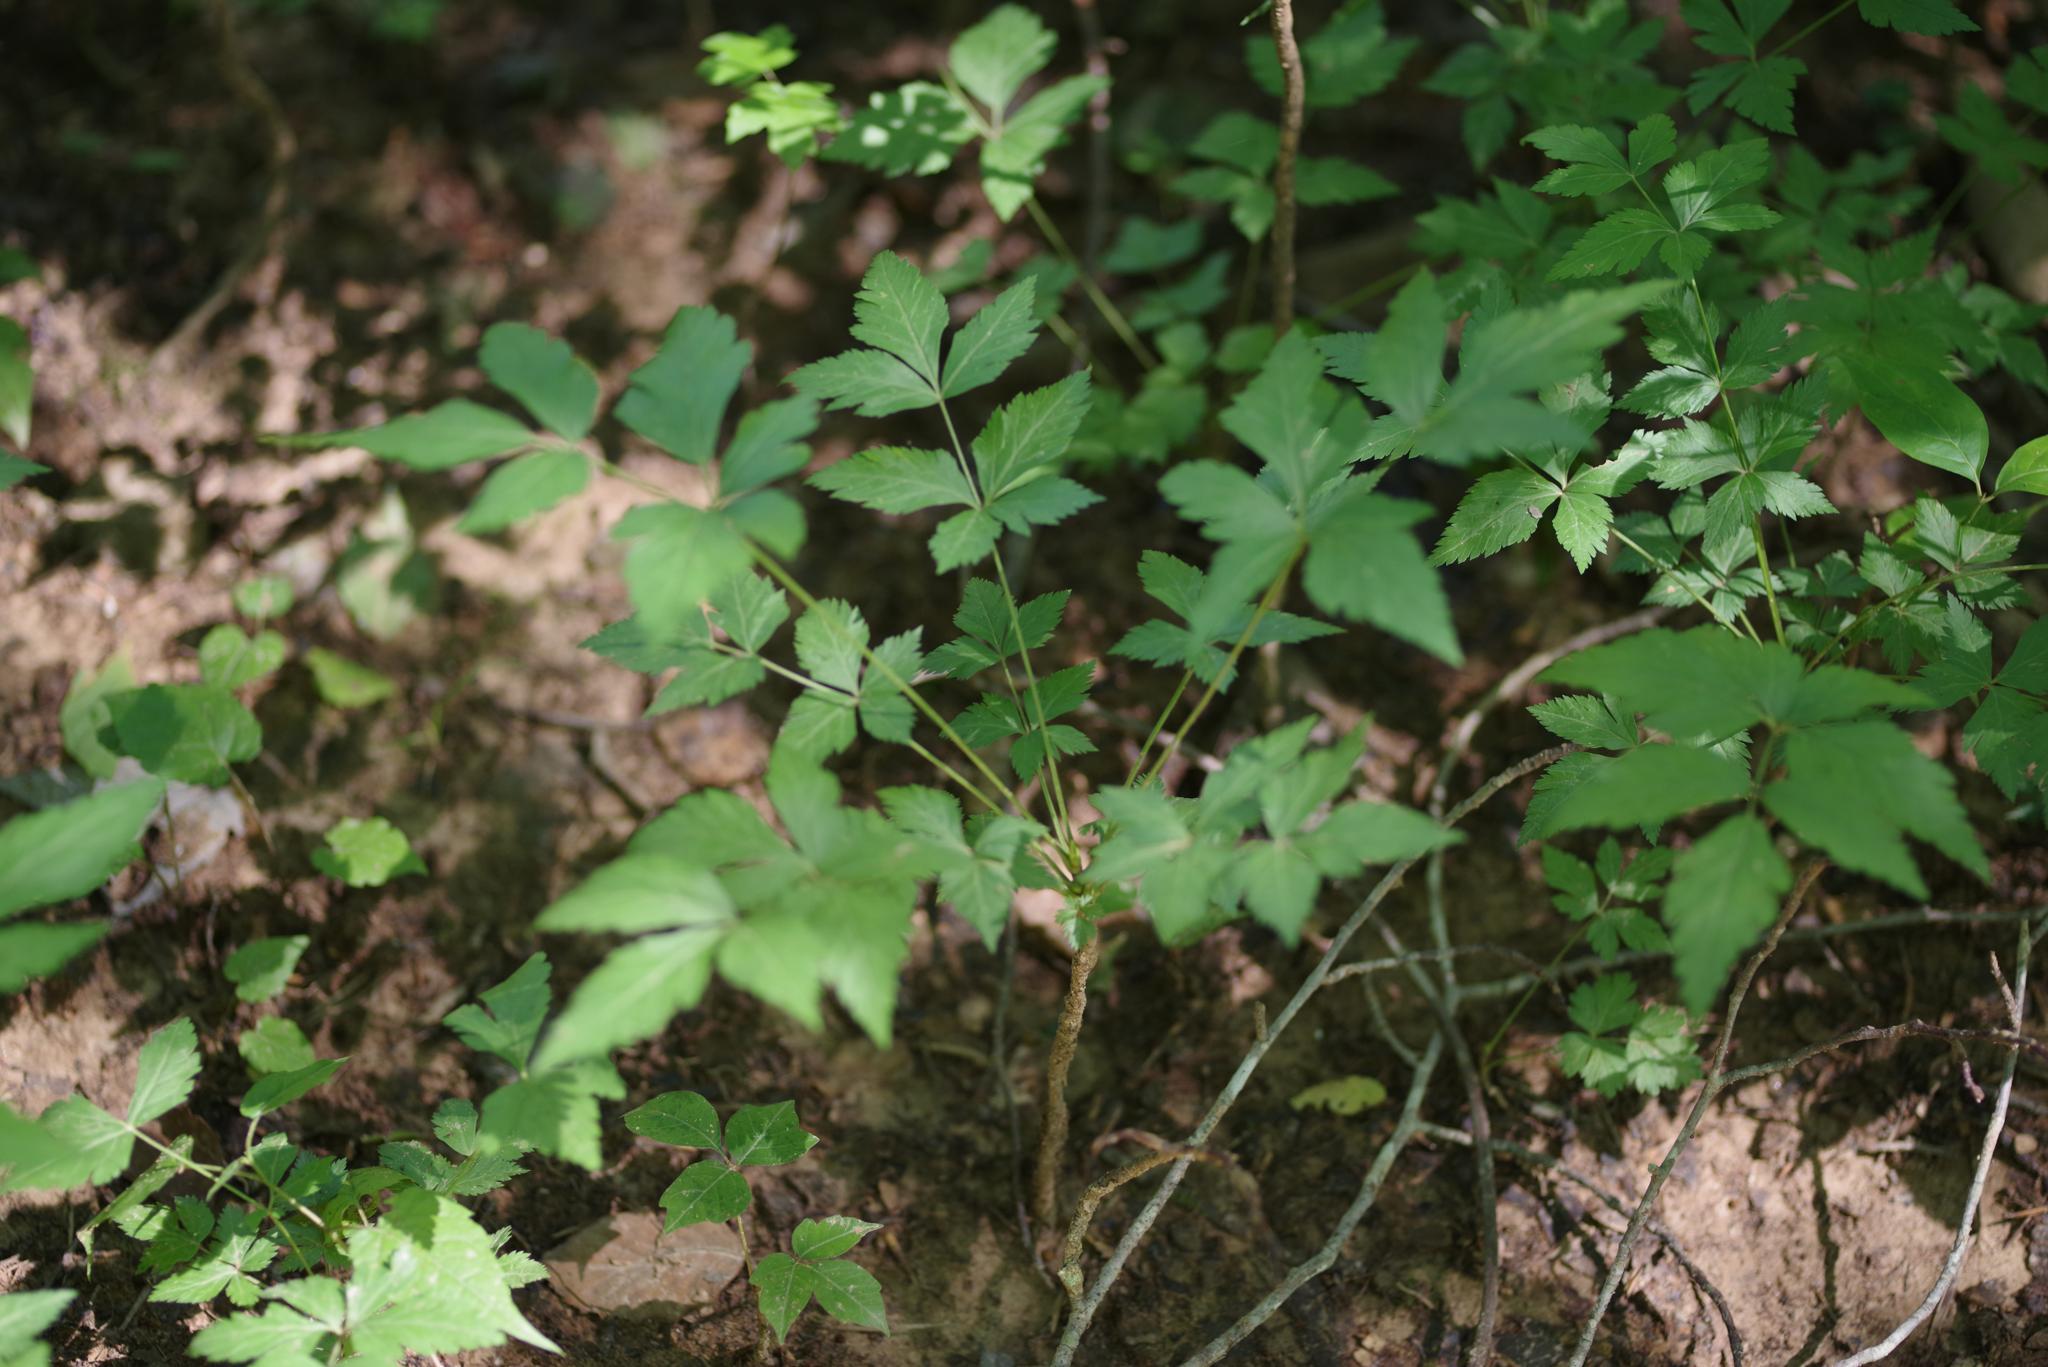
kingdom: Plantae
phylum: Tracheophyta
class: Magnoliopsida
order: Ranunculales
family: Ranunculaceae
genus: Xanthorhiza
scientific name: Xanthorhiza simplicissima
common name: Yellowroot
